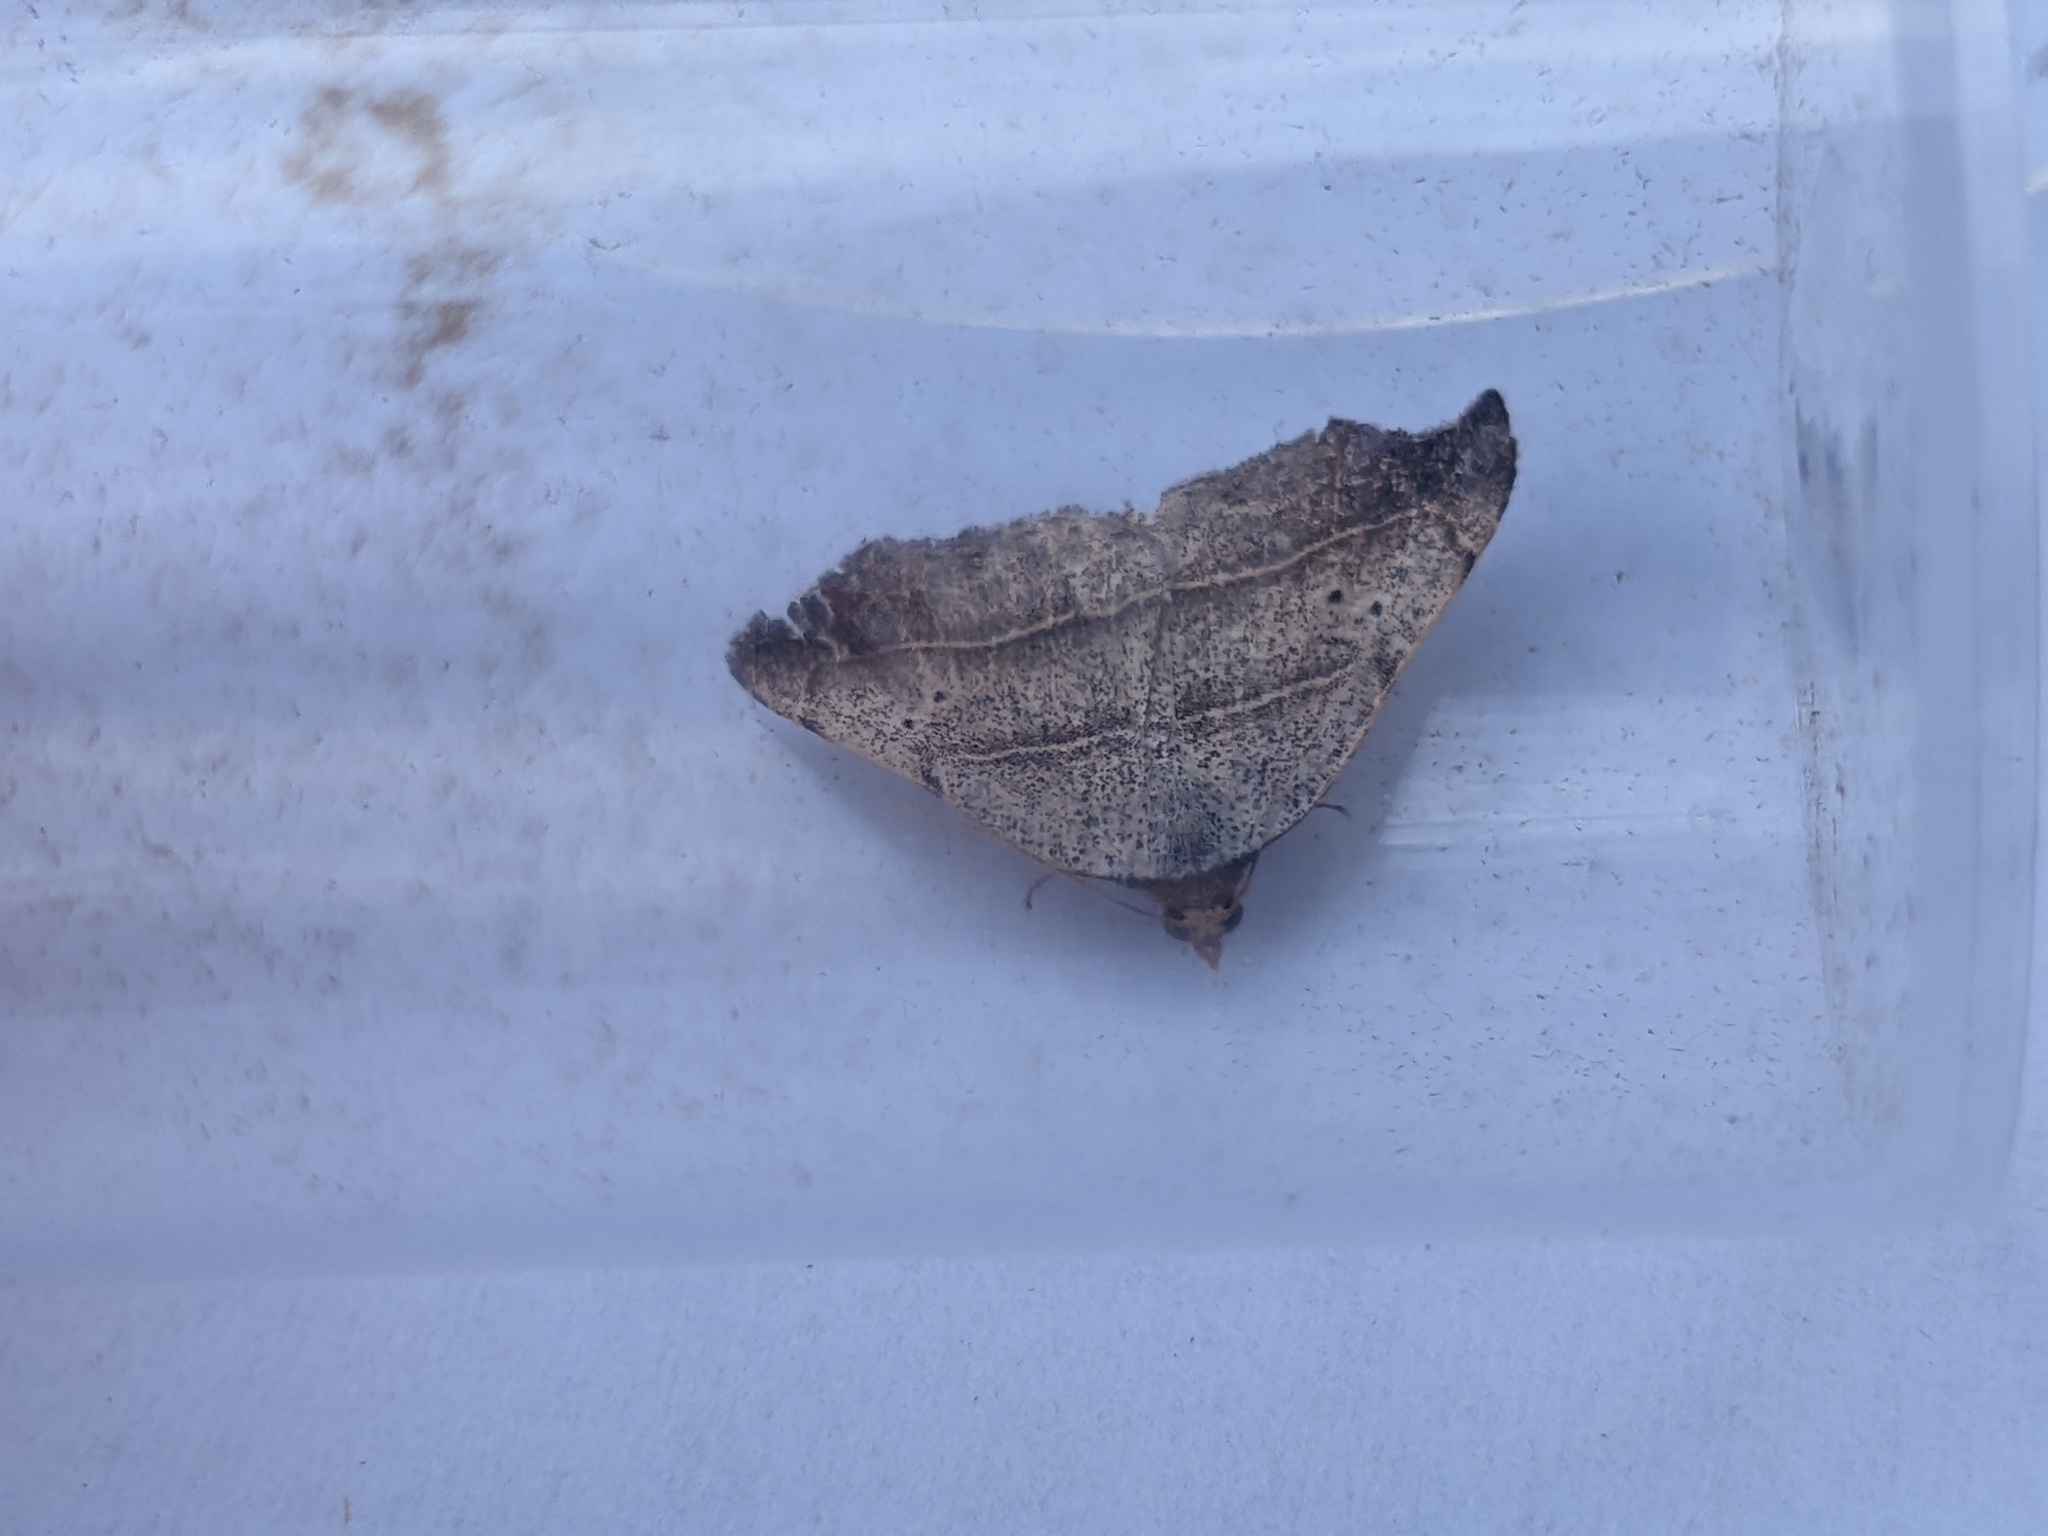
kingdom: Animalia
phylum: Arthropoda
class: Insecta
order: Lepidoptera
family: Erebidae
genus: Laspeyria
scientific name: Laspeyria flexula
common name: Beautiful hook-tip
